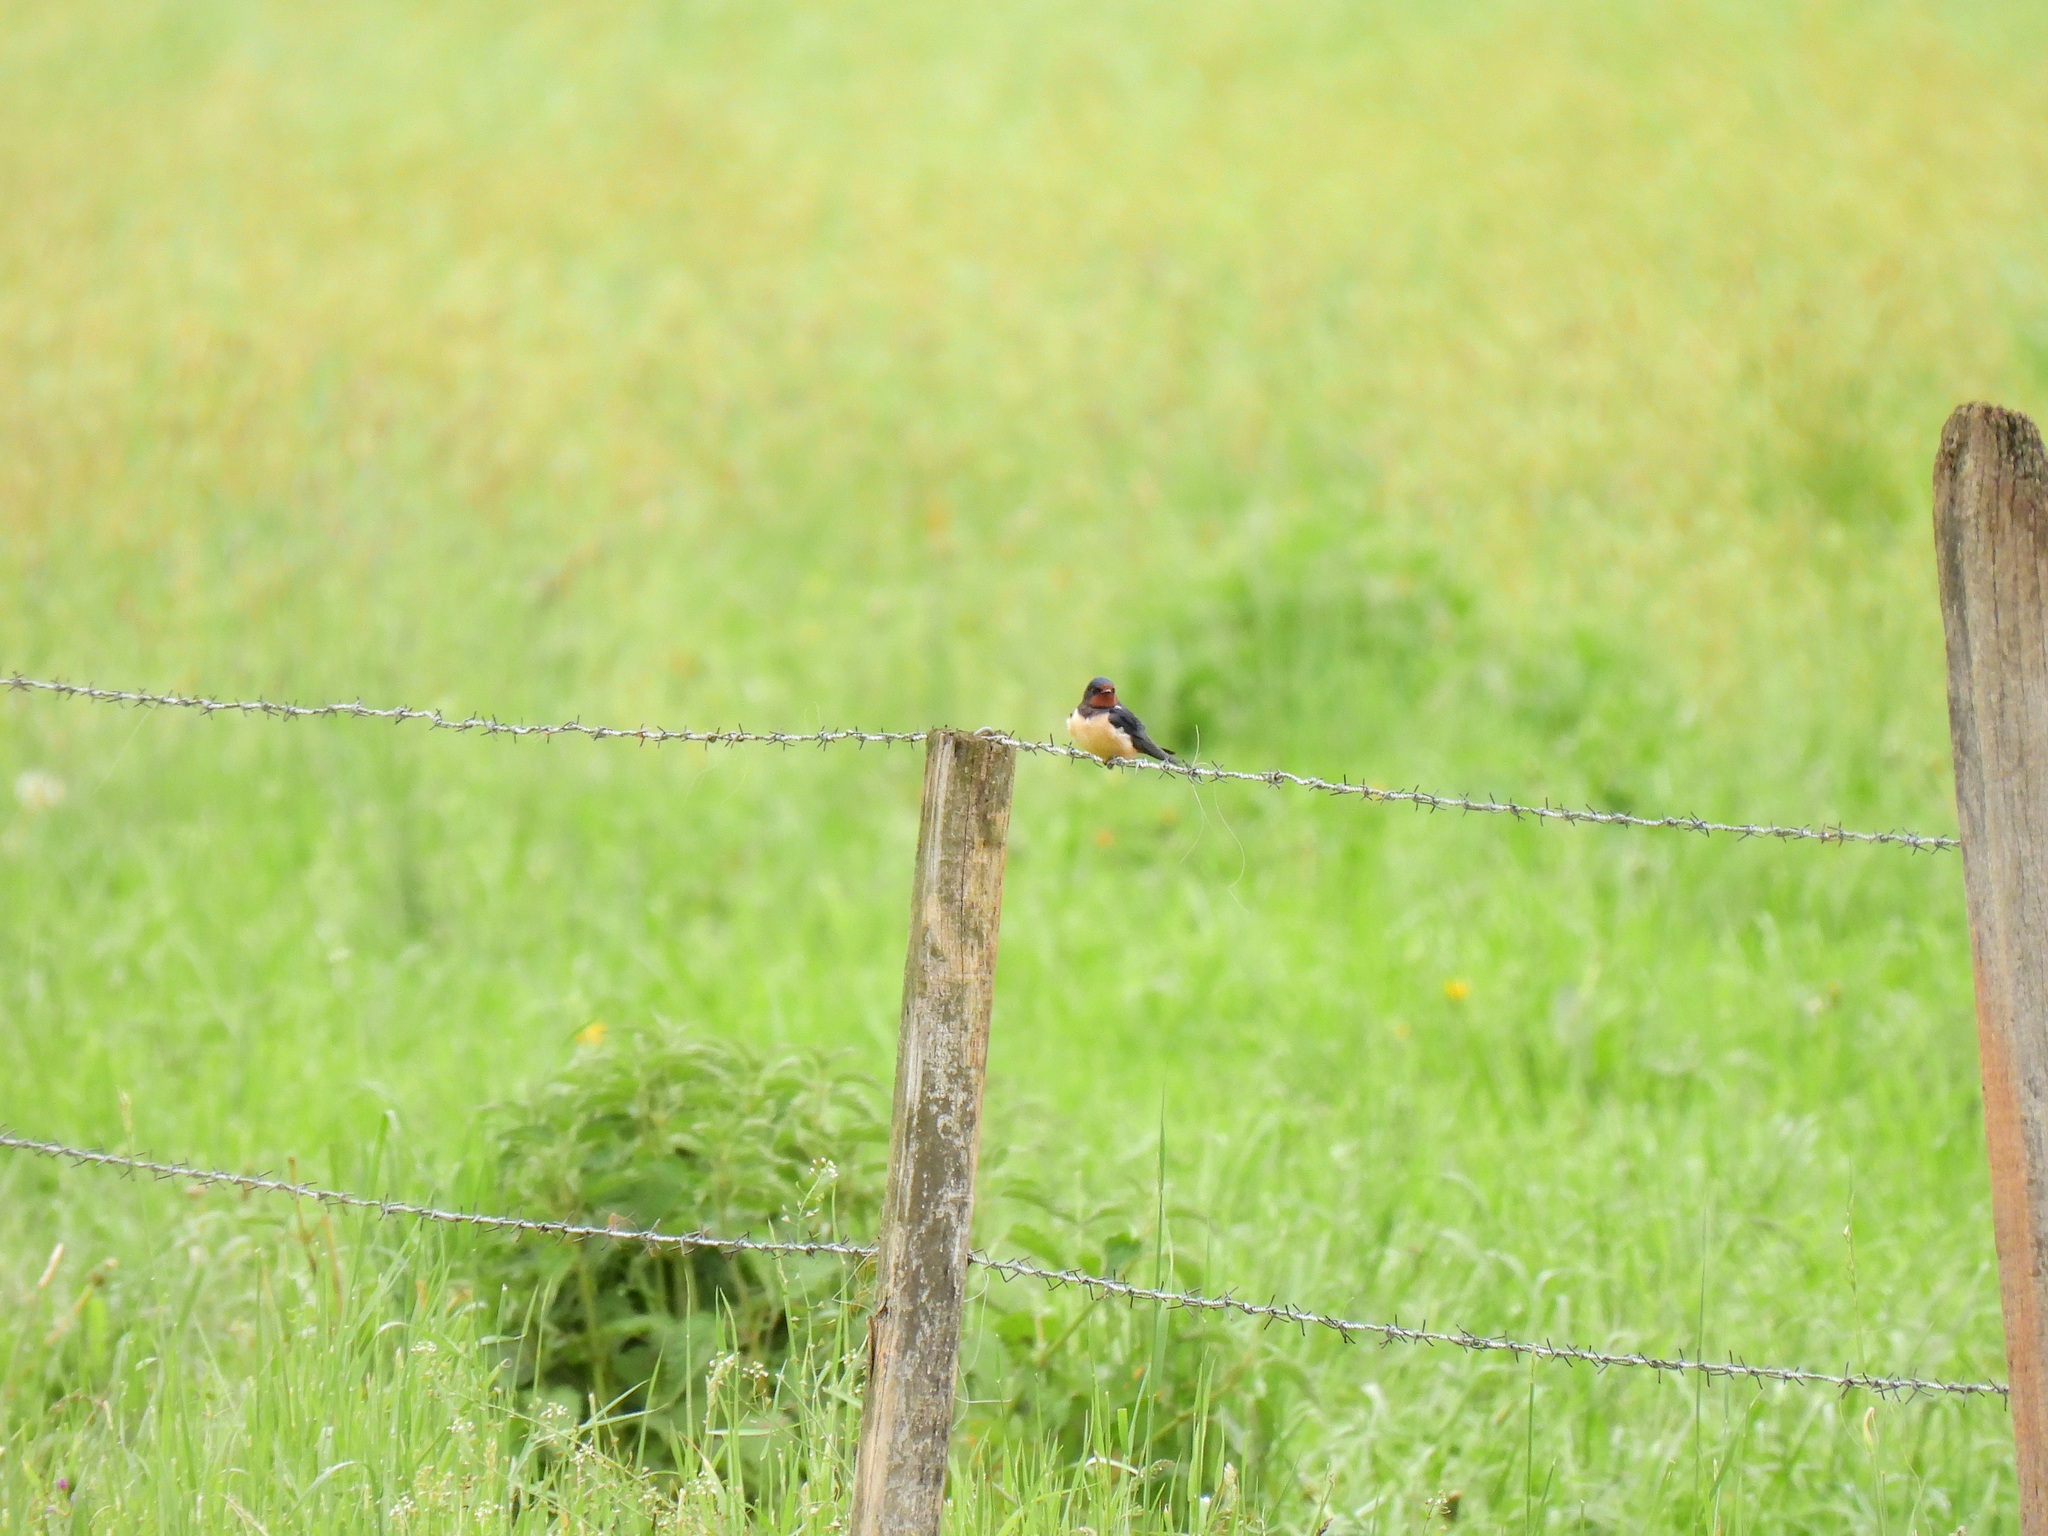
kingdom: Animalia
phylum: Chordata
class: Aves
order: Passeriformes
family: Hirundinidae
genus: Hirundo
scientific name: Hirundo rustica
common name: Barn swallow
